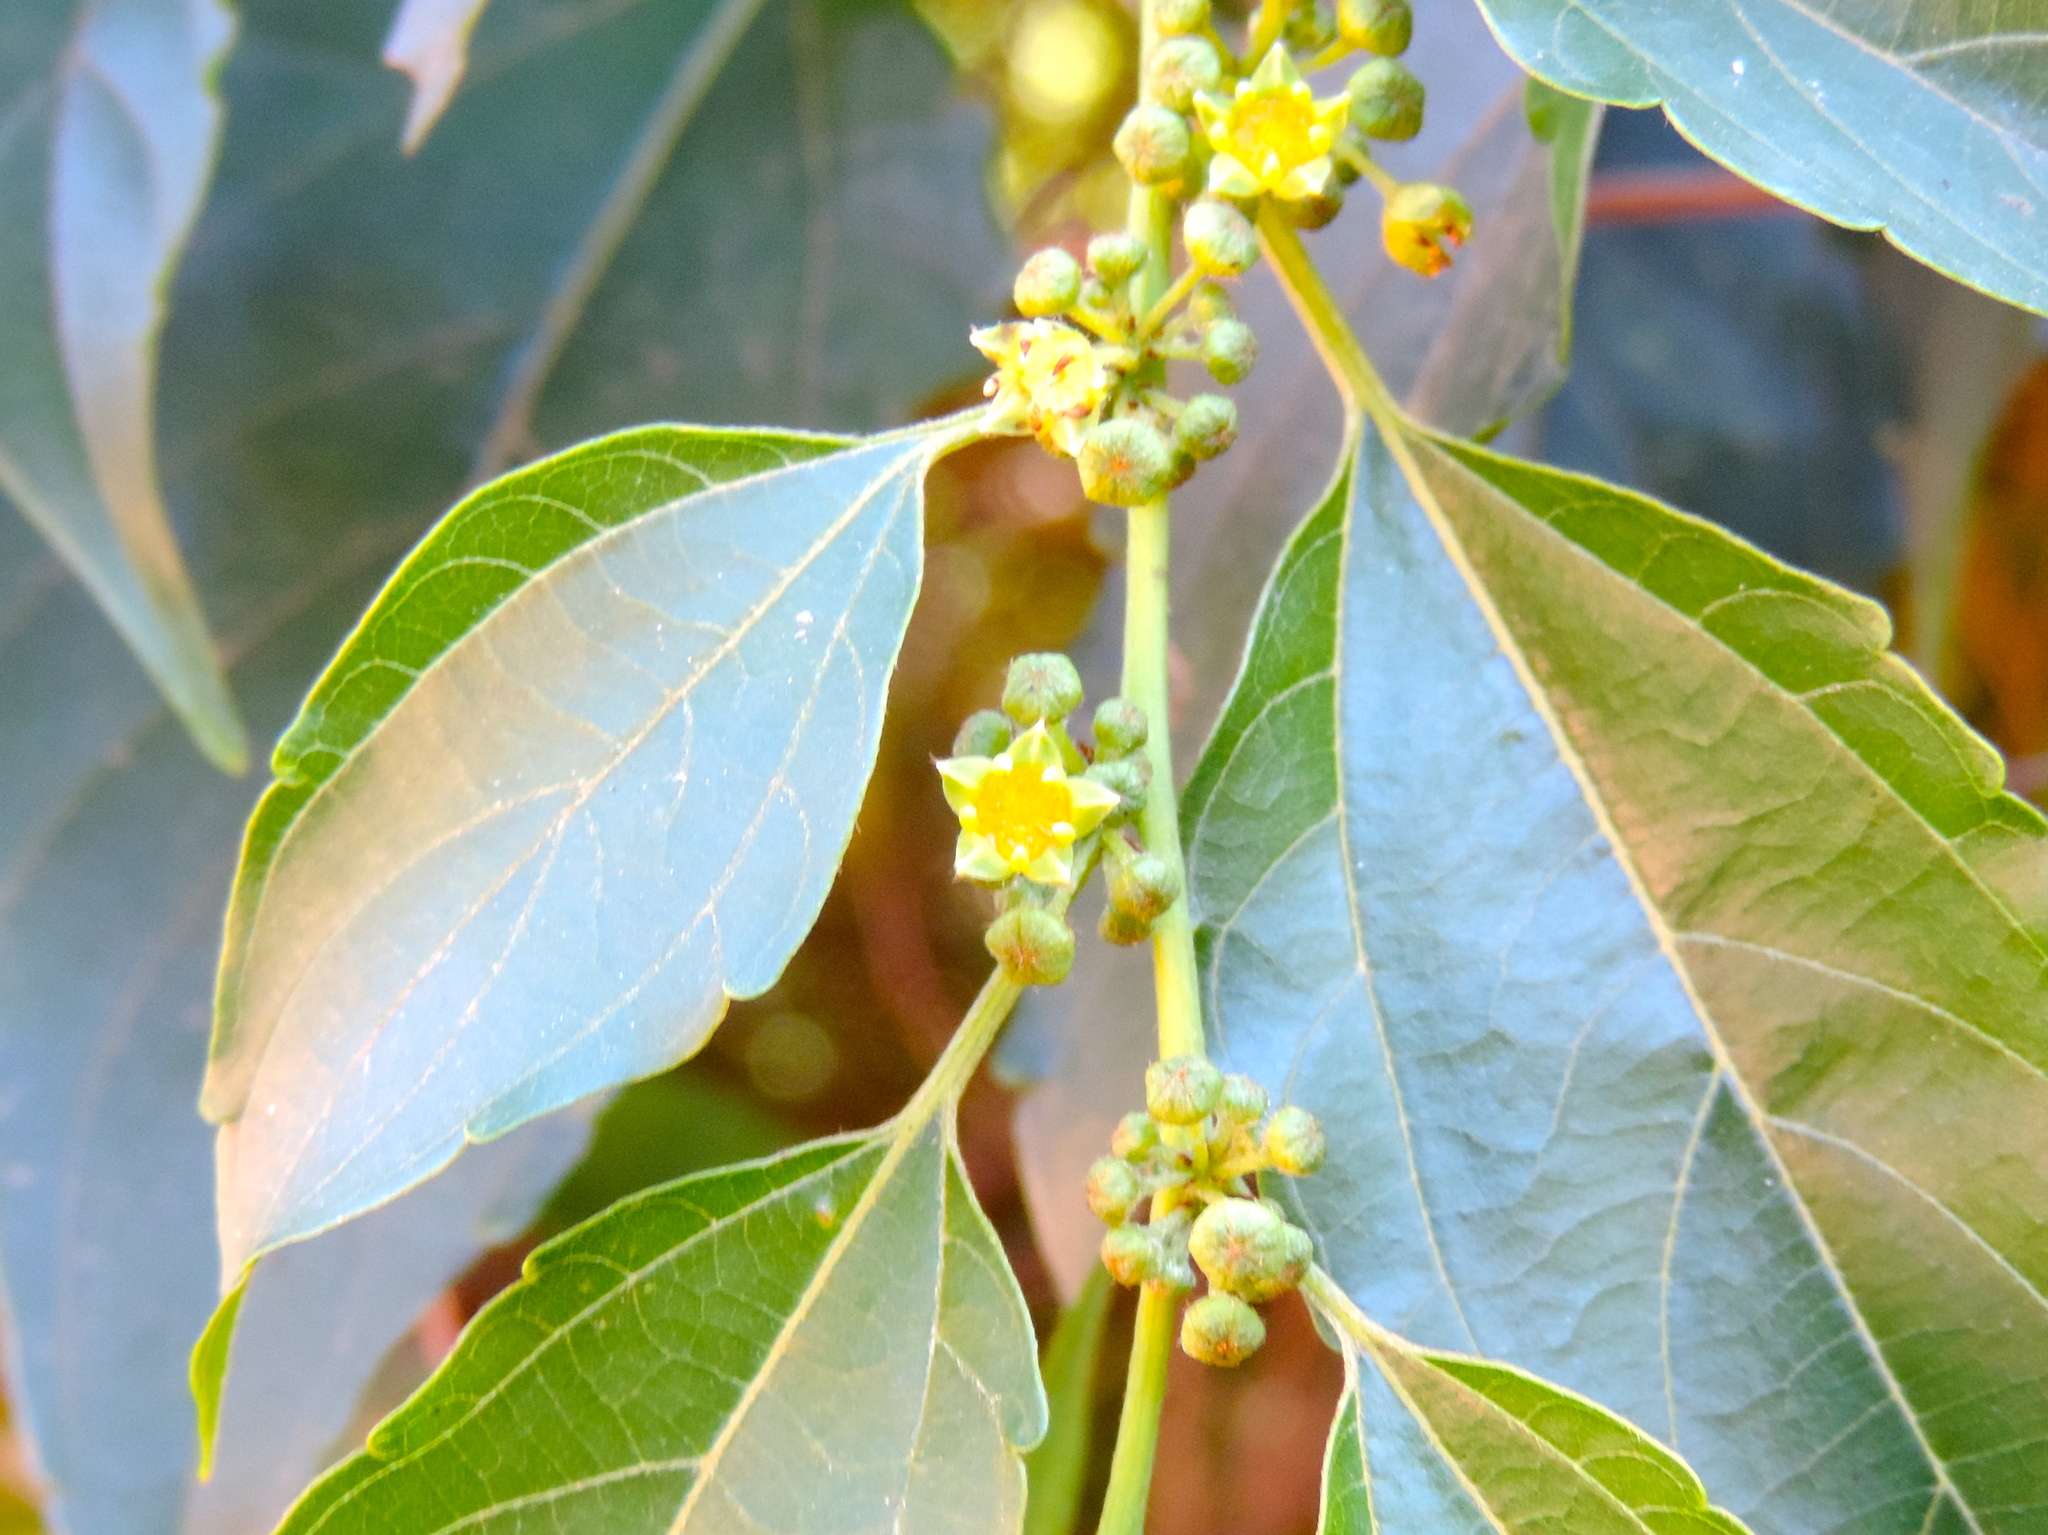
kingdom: Plantae
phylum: Tracheophyta
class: Magnoliopsida
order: Rosales
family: Rhamnaceae
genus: Colubrina
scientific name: Colubrina triflora
